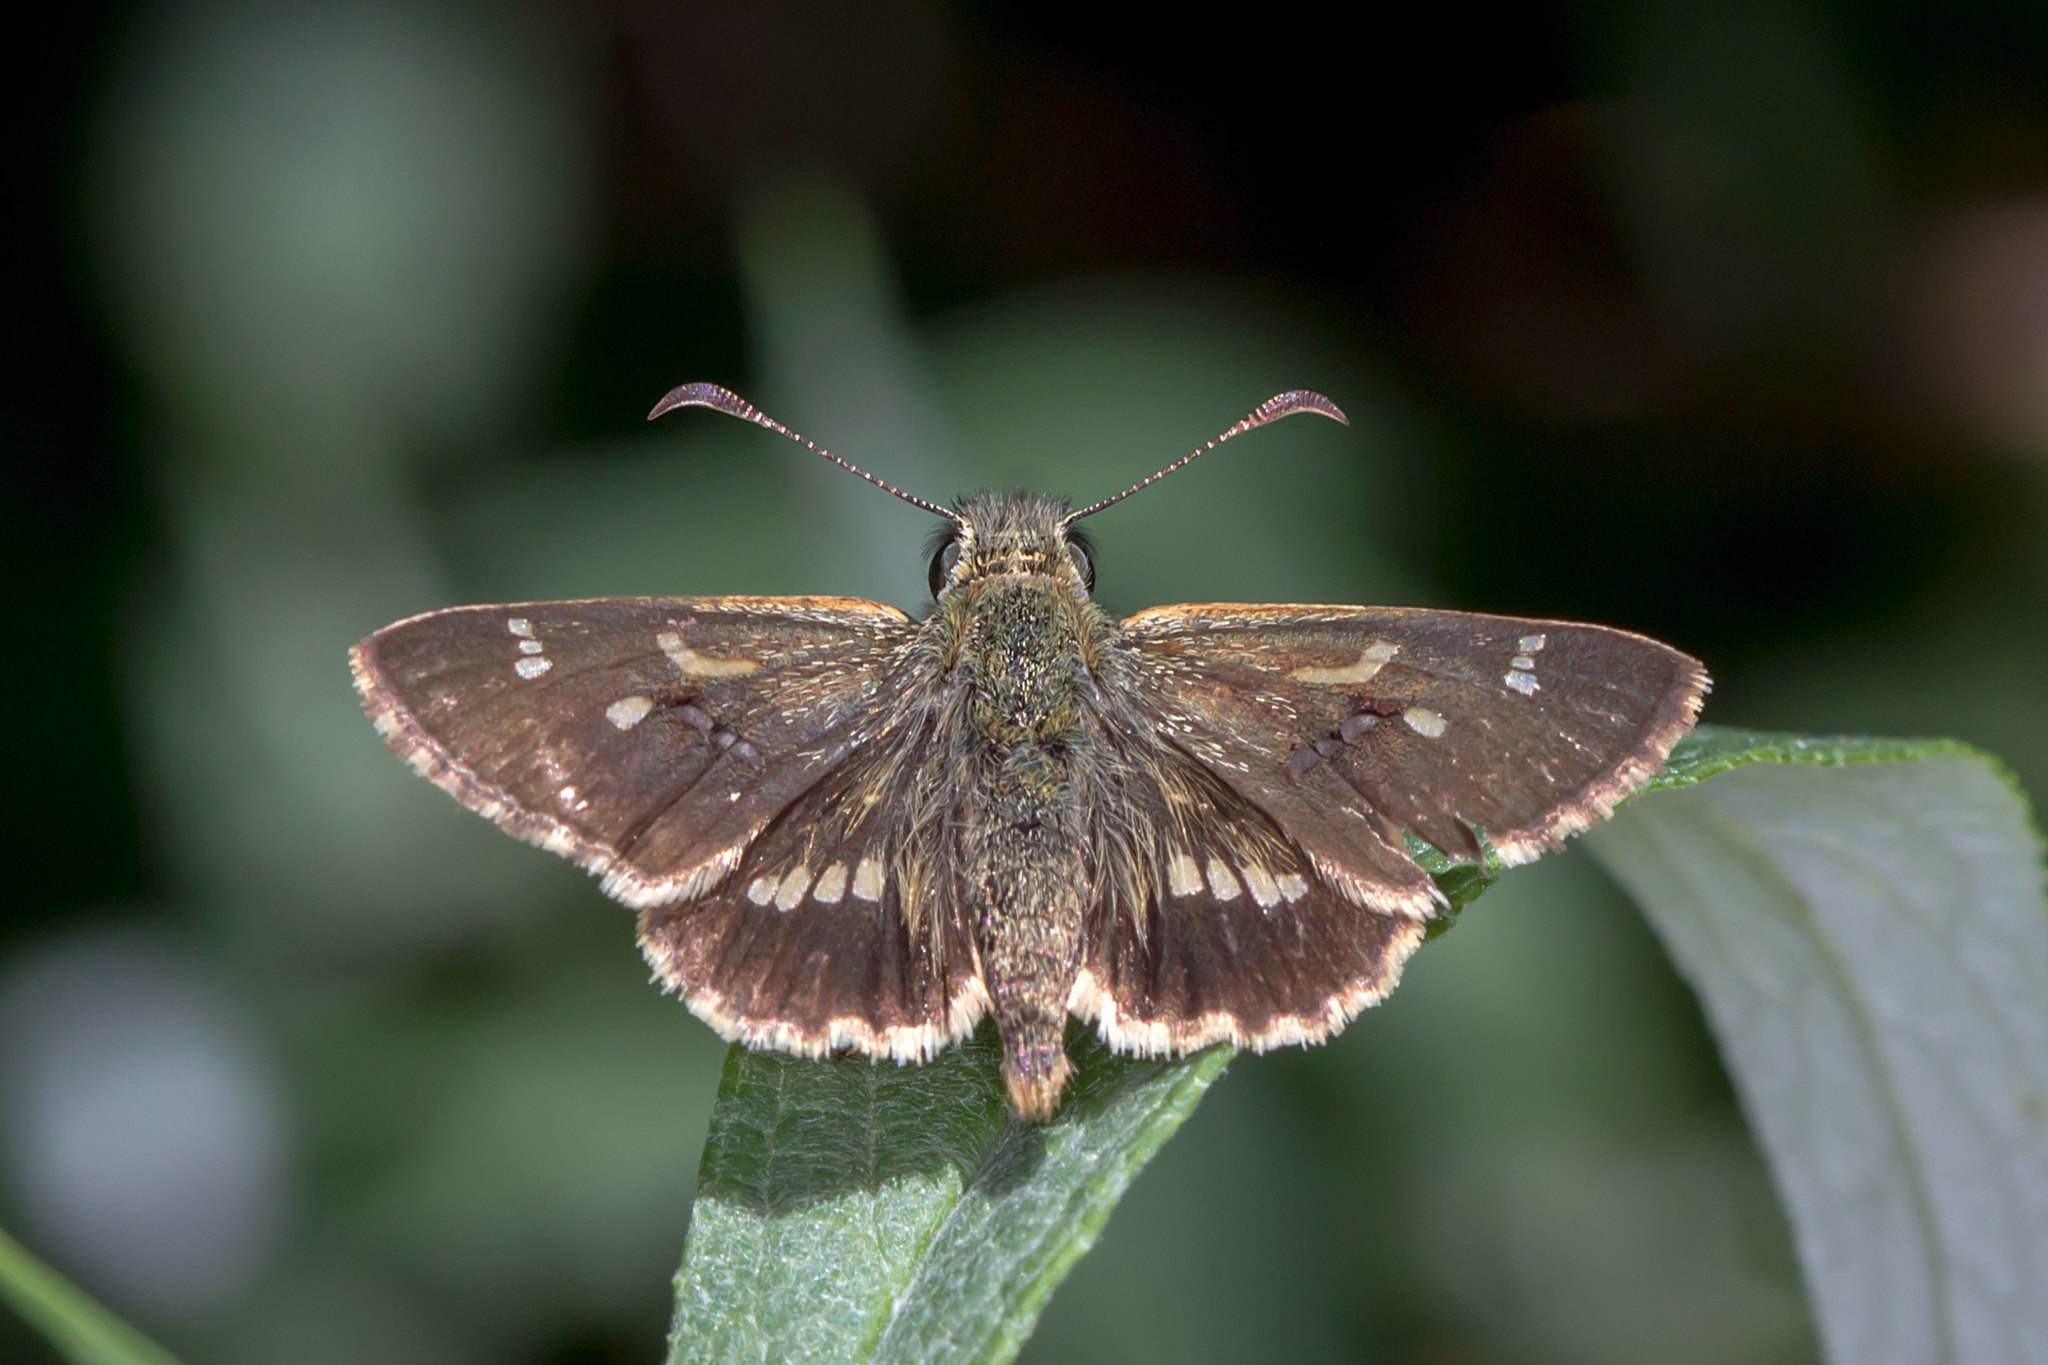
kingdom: Animalia
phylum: Arthropoda
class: Insecta
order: Lepidoptera
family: Hesperiidae
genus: Dispar
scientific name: Dispar compacta
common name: Barred skipper
